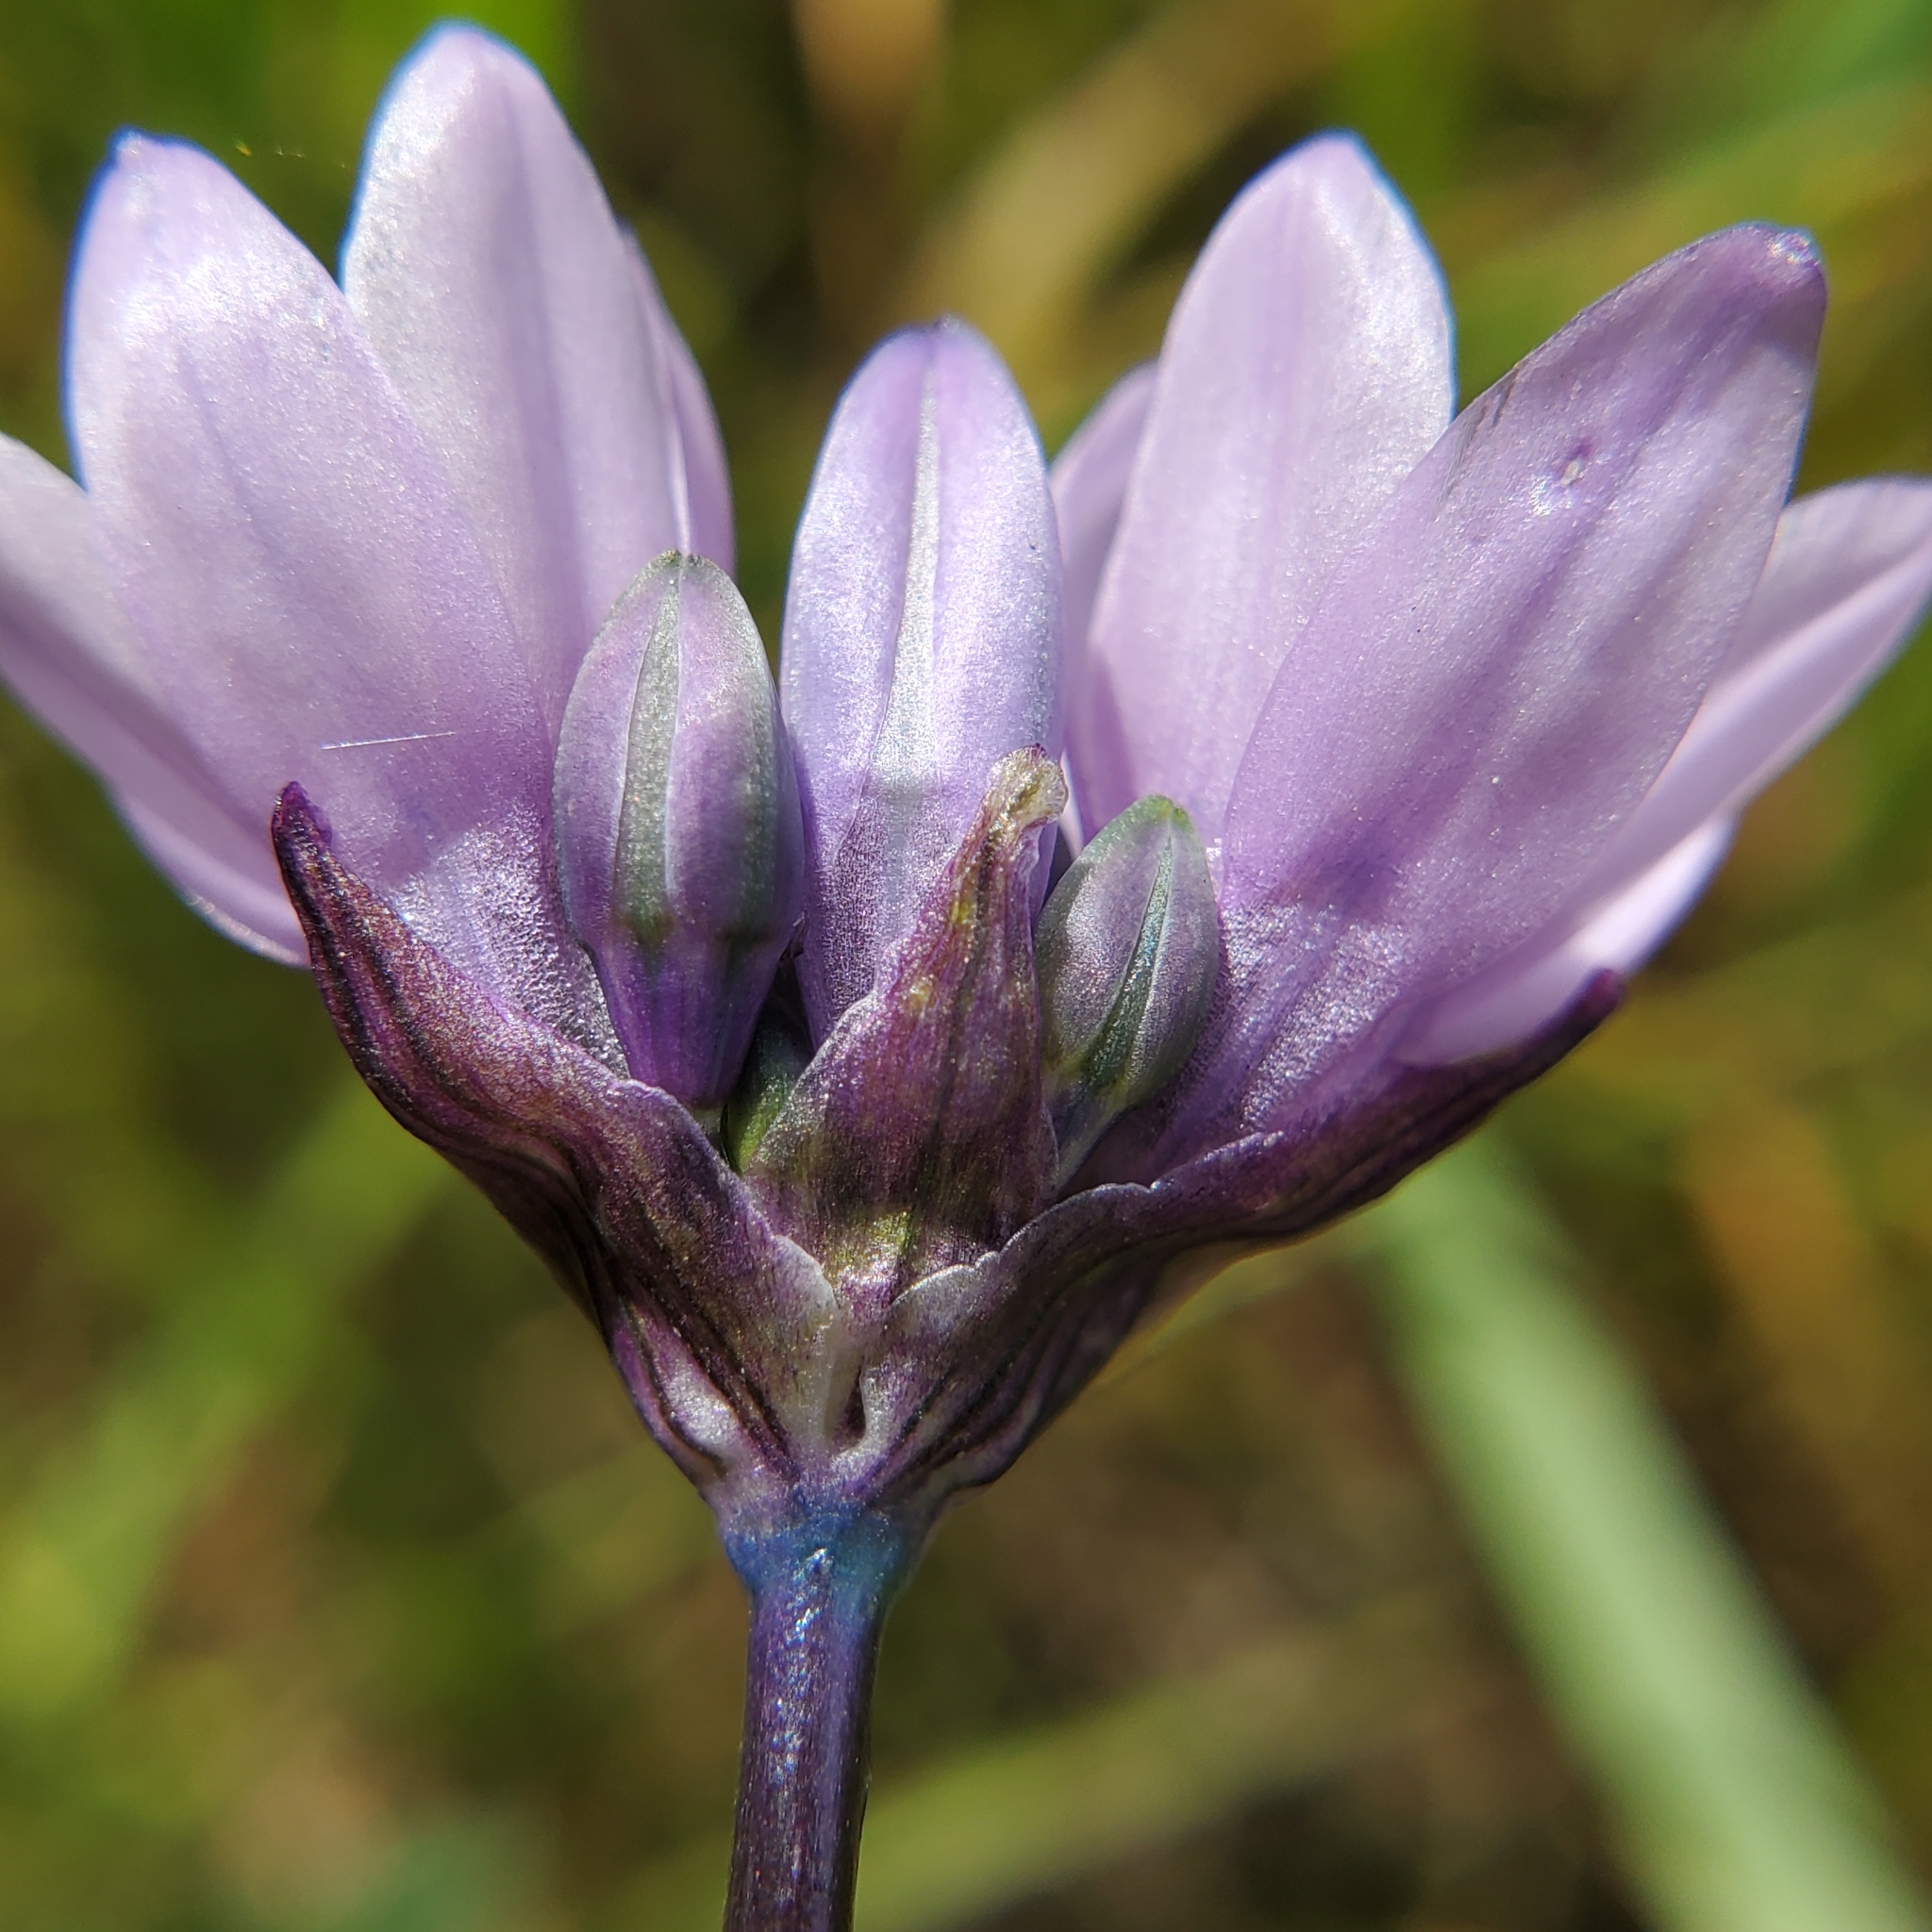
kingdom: Plantae
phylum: Tracheophyta
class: Liliopsida
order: Asparagales
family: Asparagaceae
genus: Dipterostemon
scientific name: Dipterostemon capitatus
